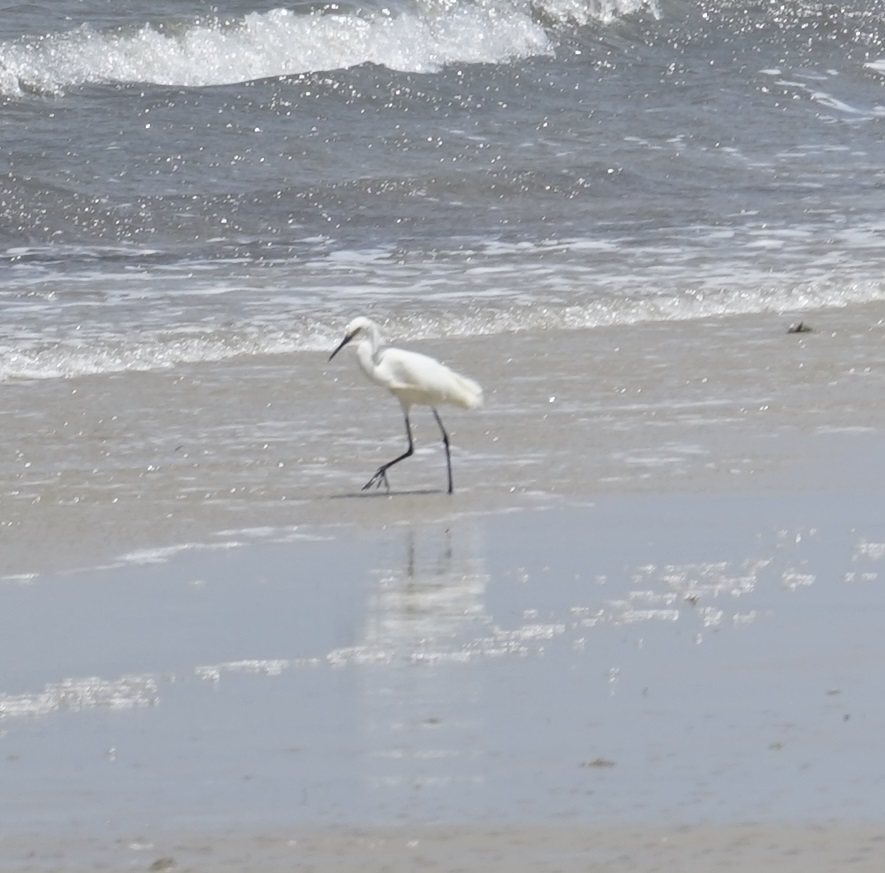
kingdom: Animalia
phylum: Chordata
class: Aves
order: Pelecaniformes
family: Ardeidae
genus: Ardea
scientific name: Ardea alba
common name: Great egret
